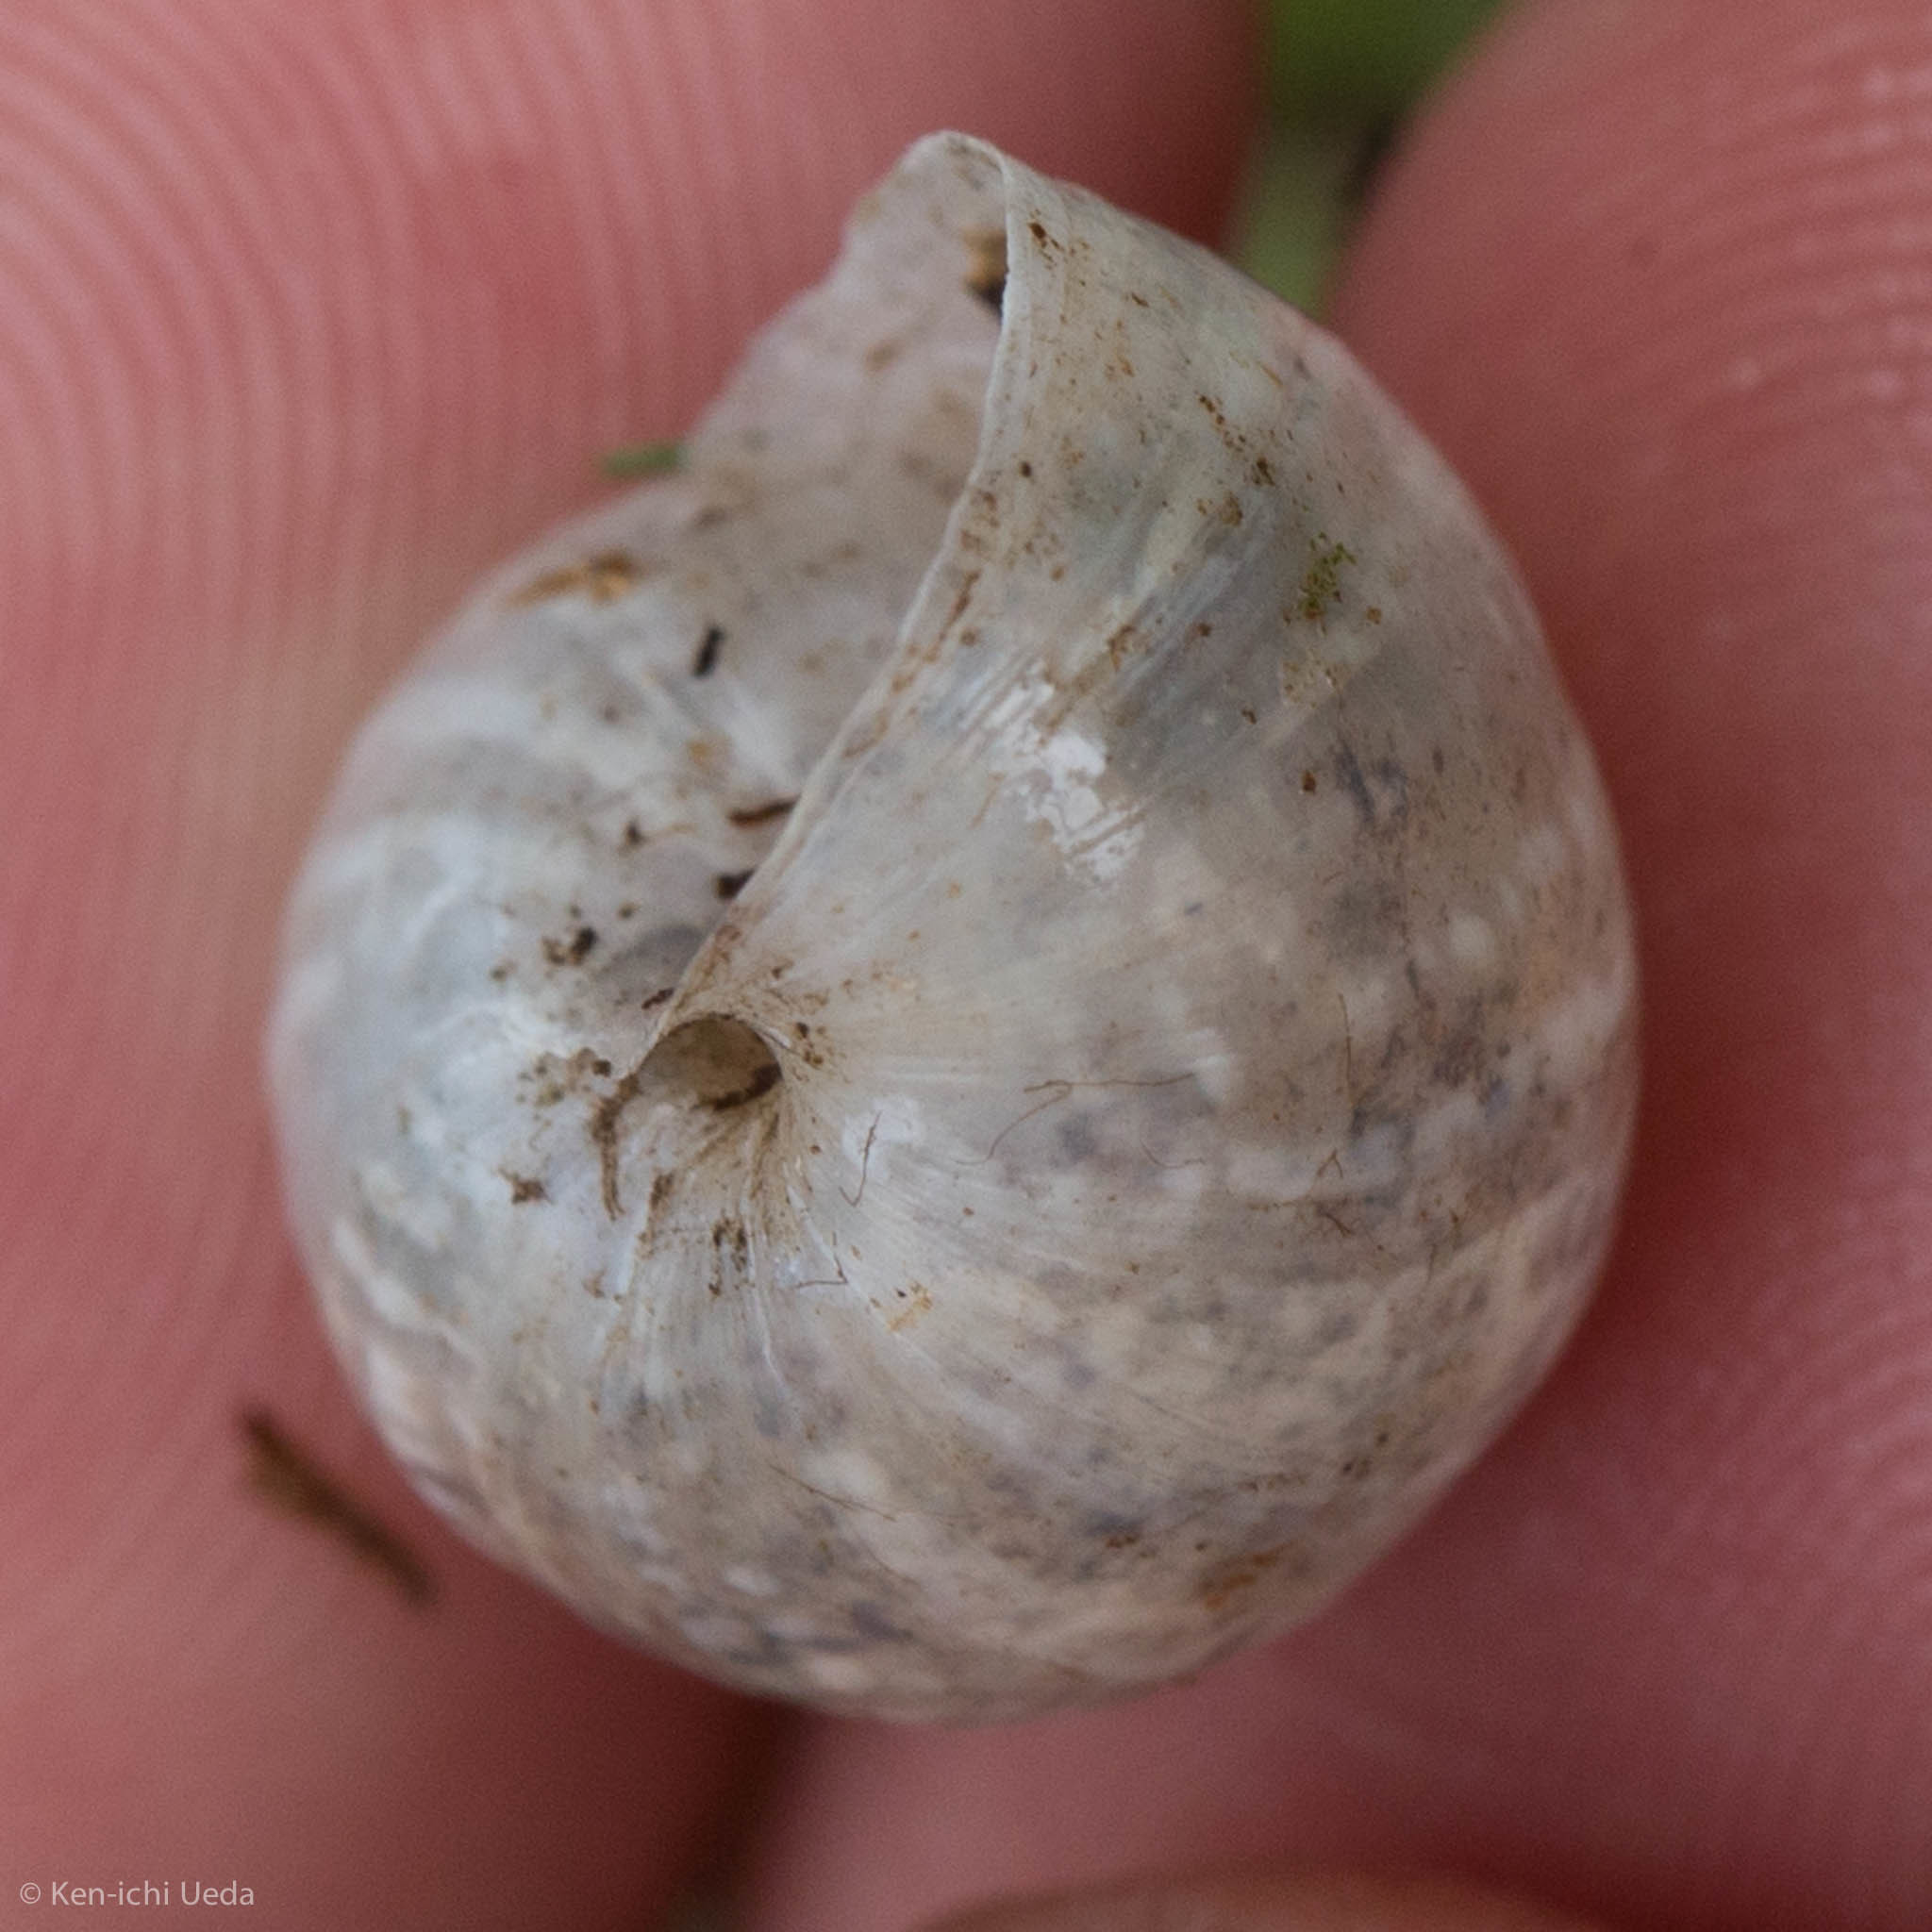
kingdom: Animalia
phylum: Mollusca
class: Gastropoda
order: Stylommatophora
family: Bulimulidae
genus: Rabdotus
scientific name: Rabdotus dealbatus
